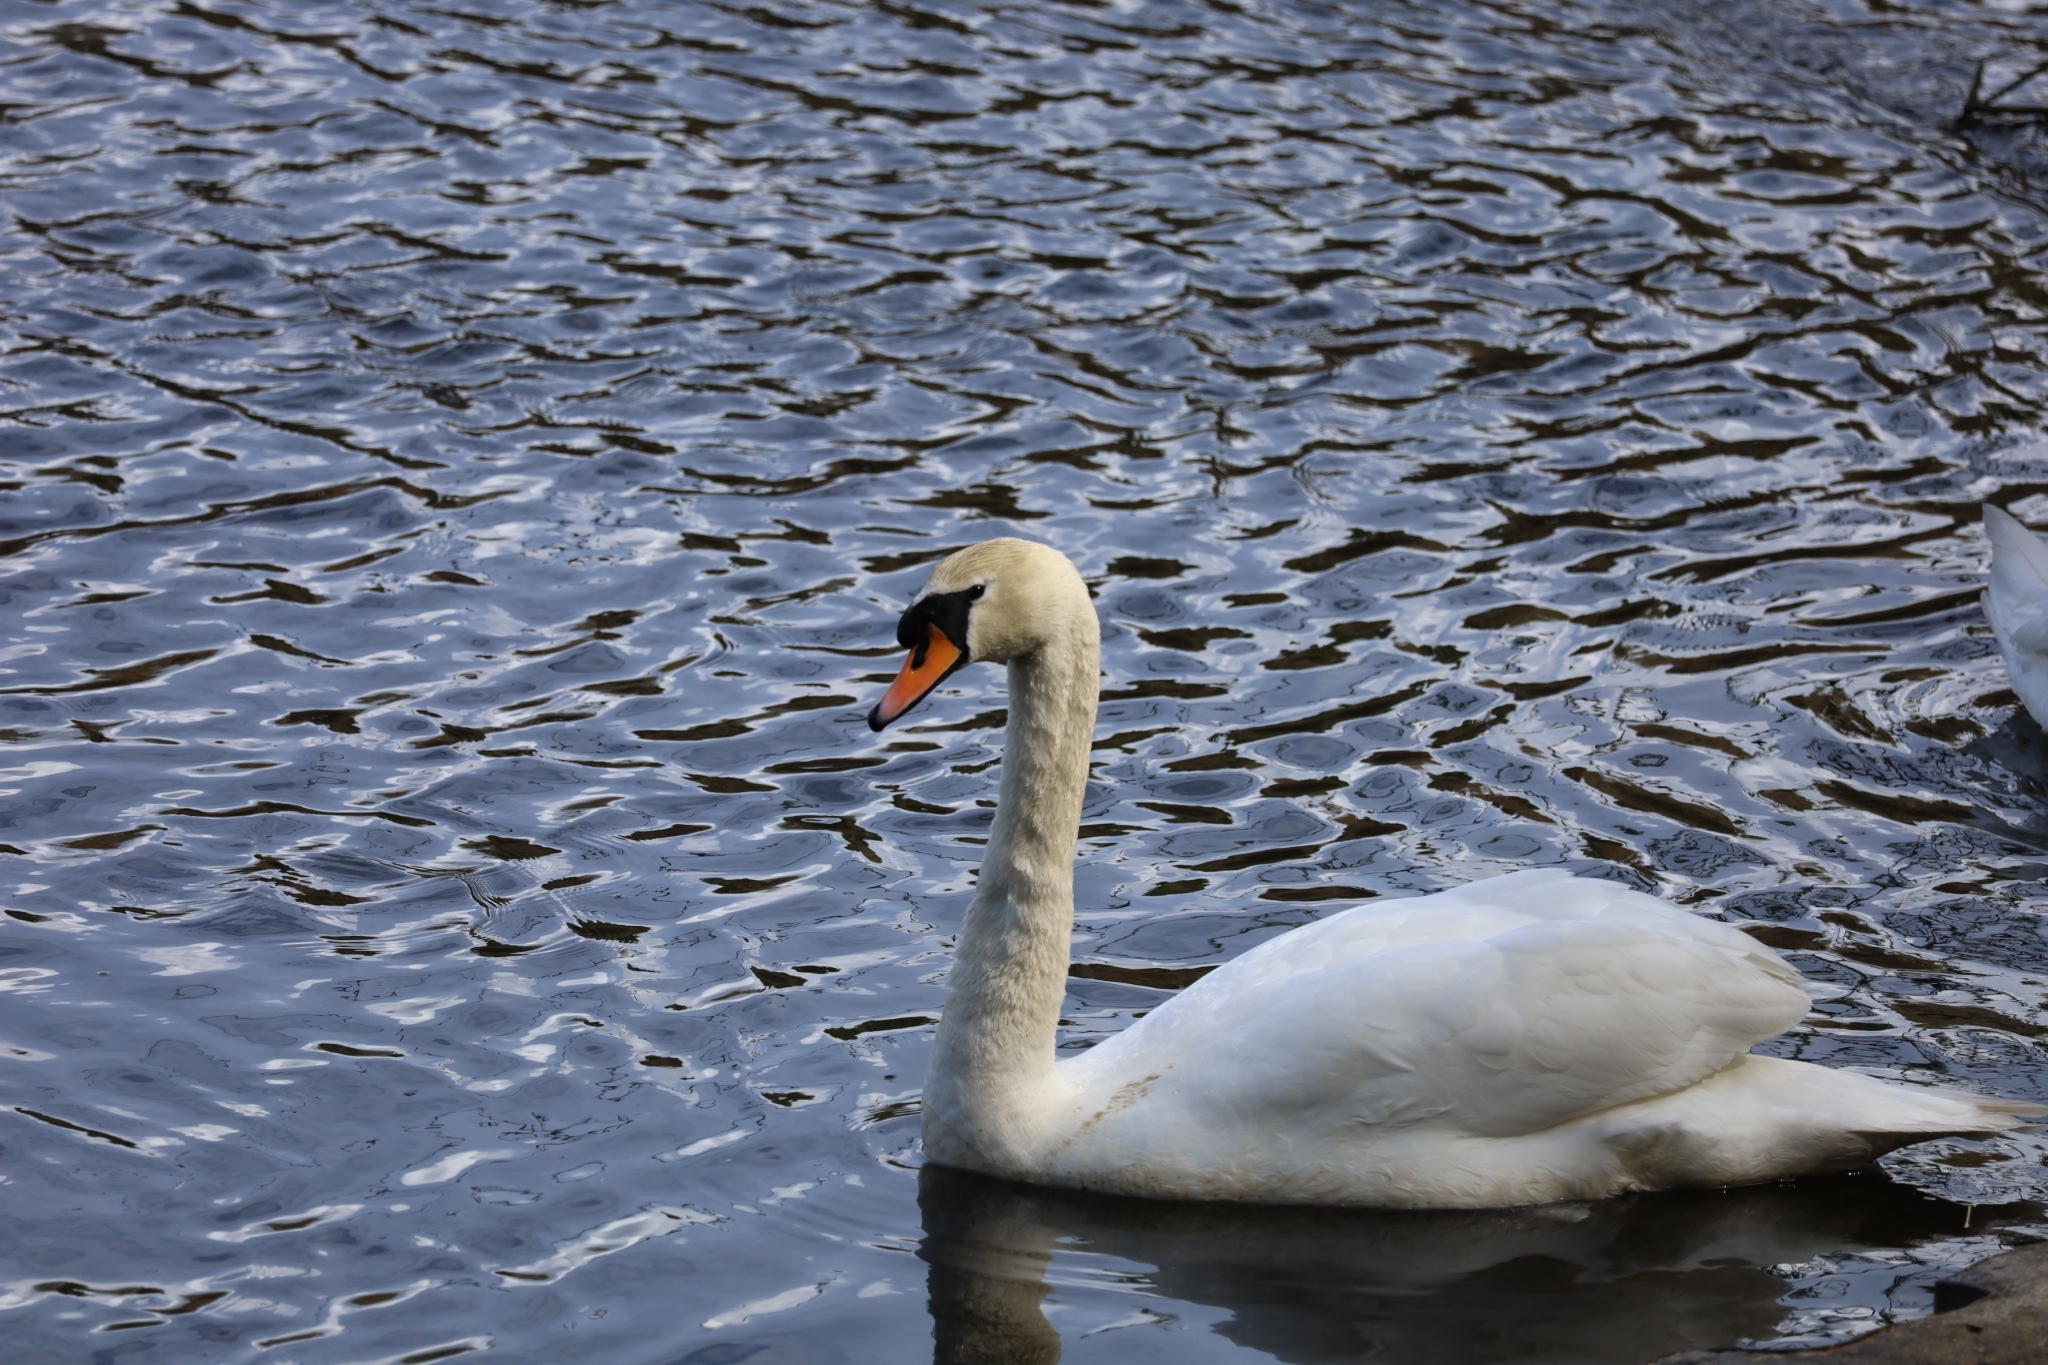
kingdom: Animalia
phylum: Chordata
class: Aves
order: Anseriformes
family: Anatidae
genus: Cygnus
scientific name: Cygnus olor
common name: Mute swan
